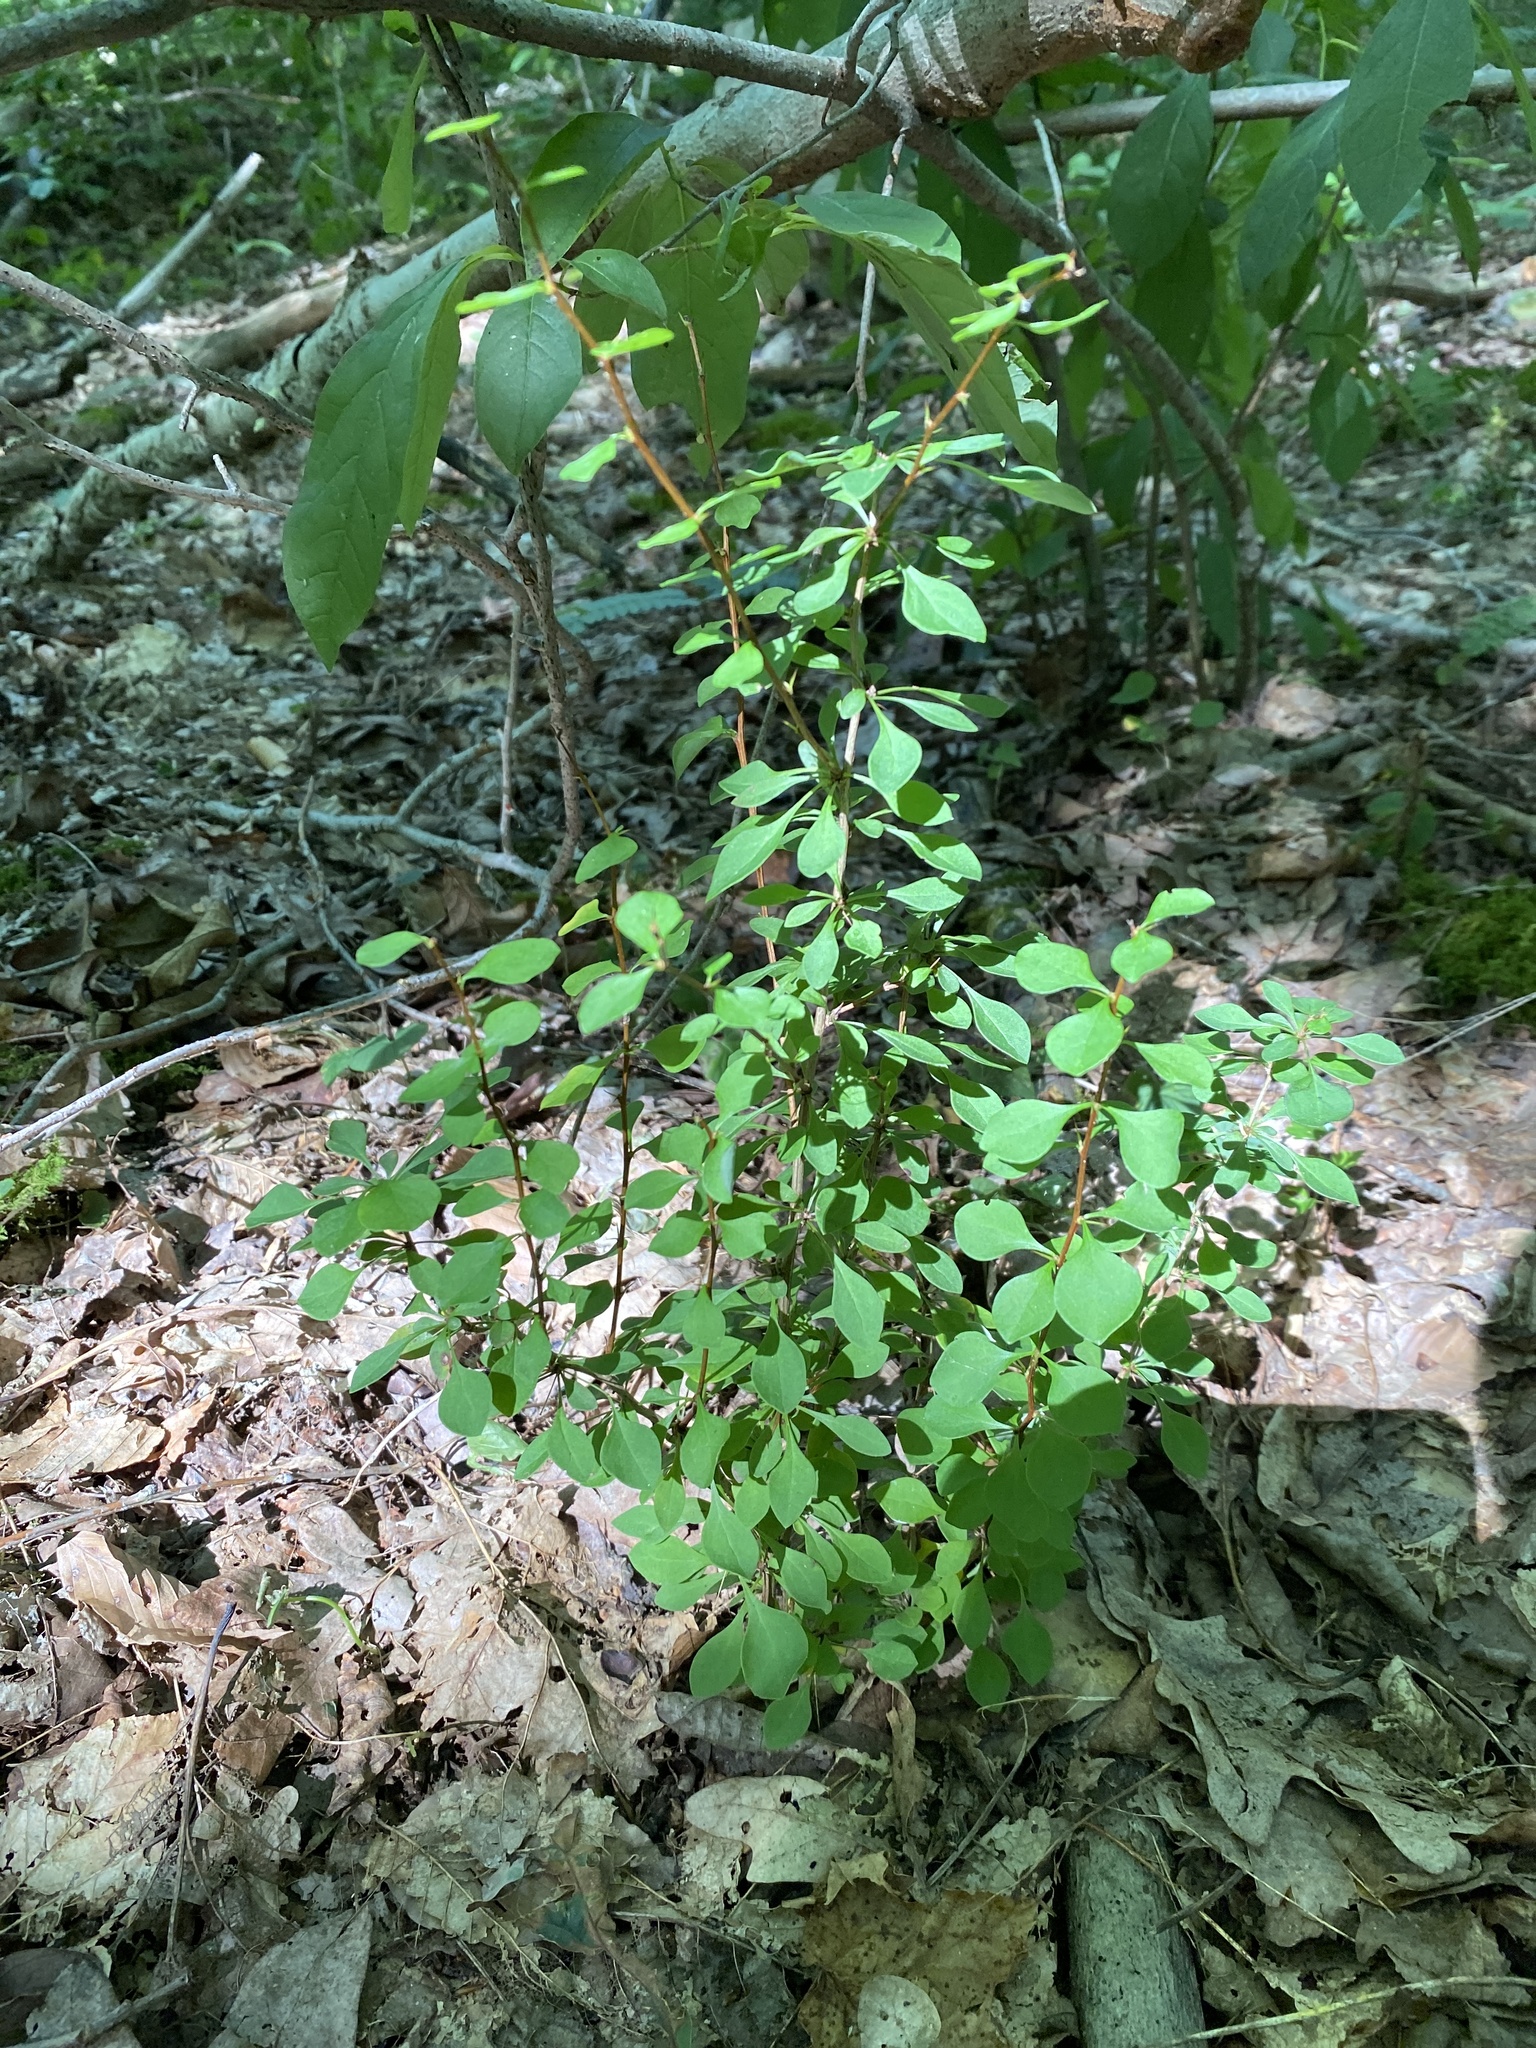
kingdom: Plantae
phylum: Tracheophyta
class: Magnoliopsida
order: Ranunculales
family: Berberidaceae
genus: Berberis
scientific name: Berberis thunbergii
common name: Japanese barberry
